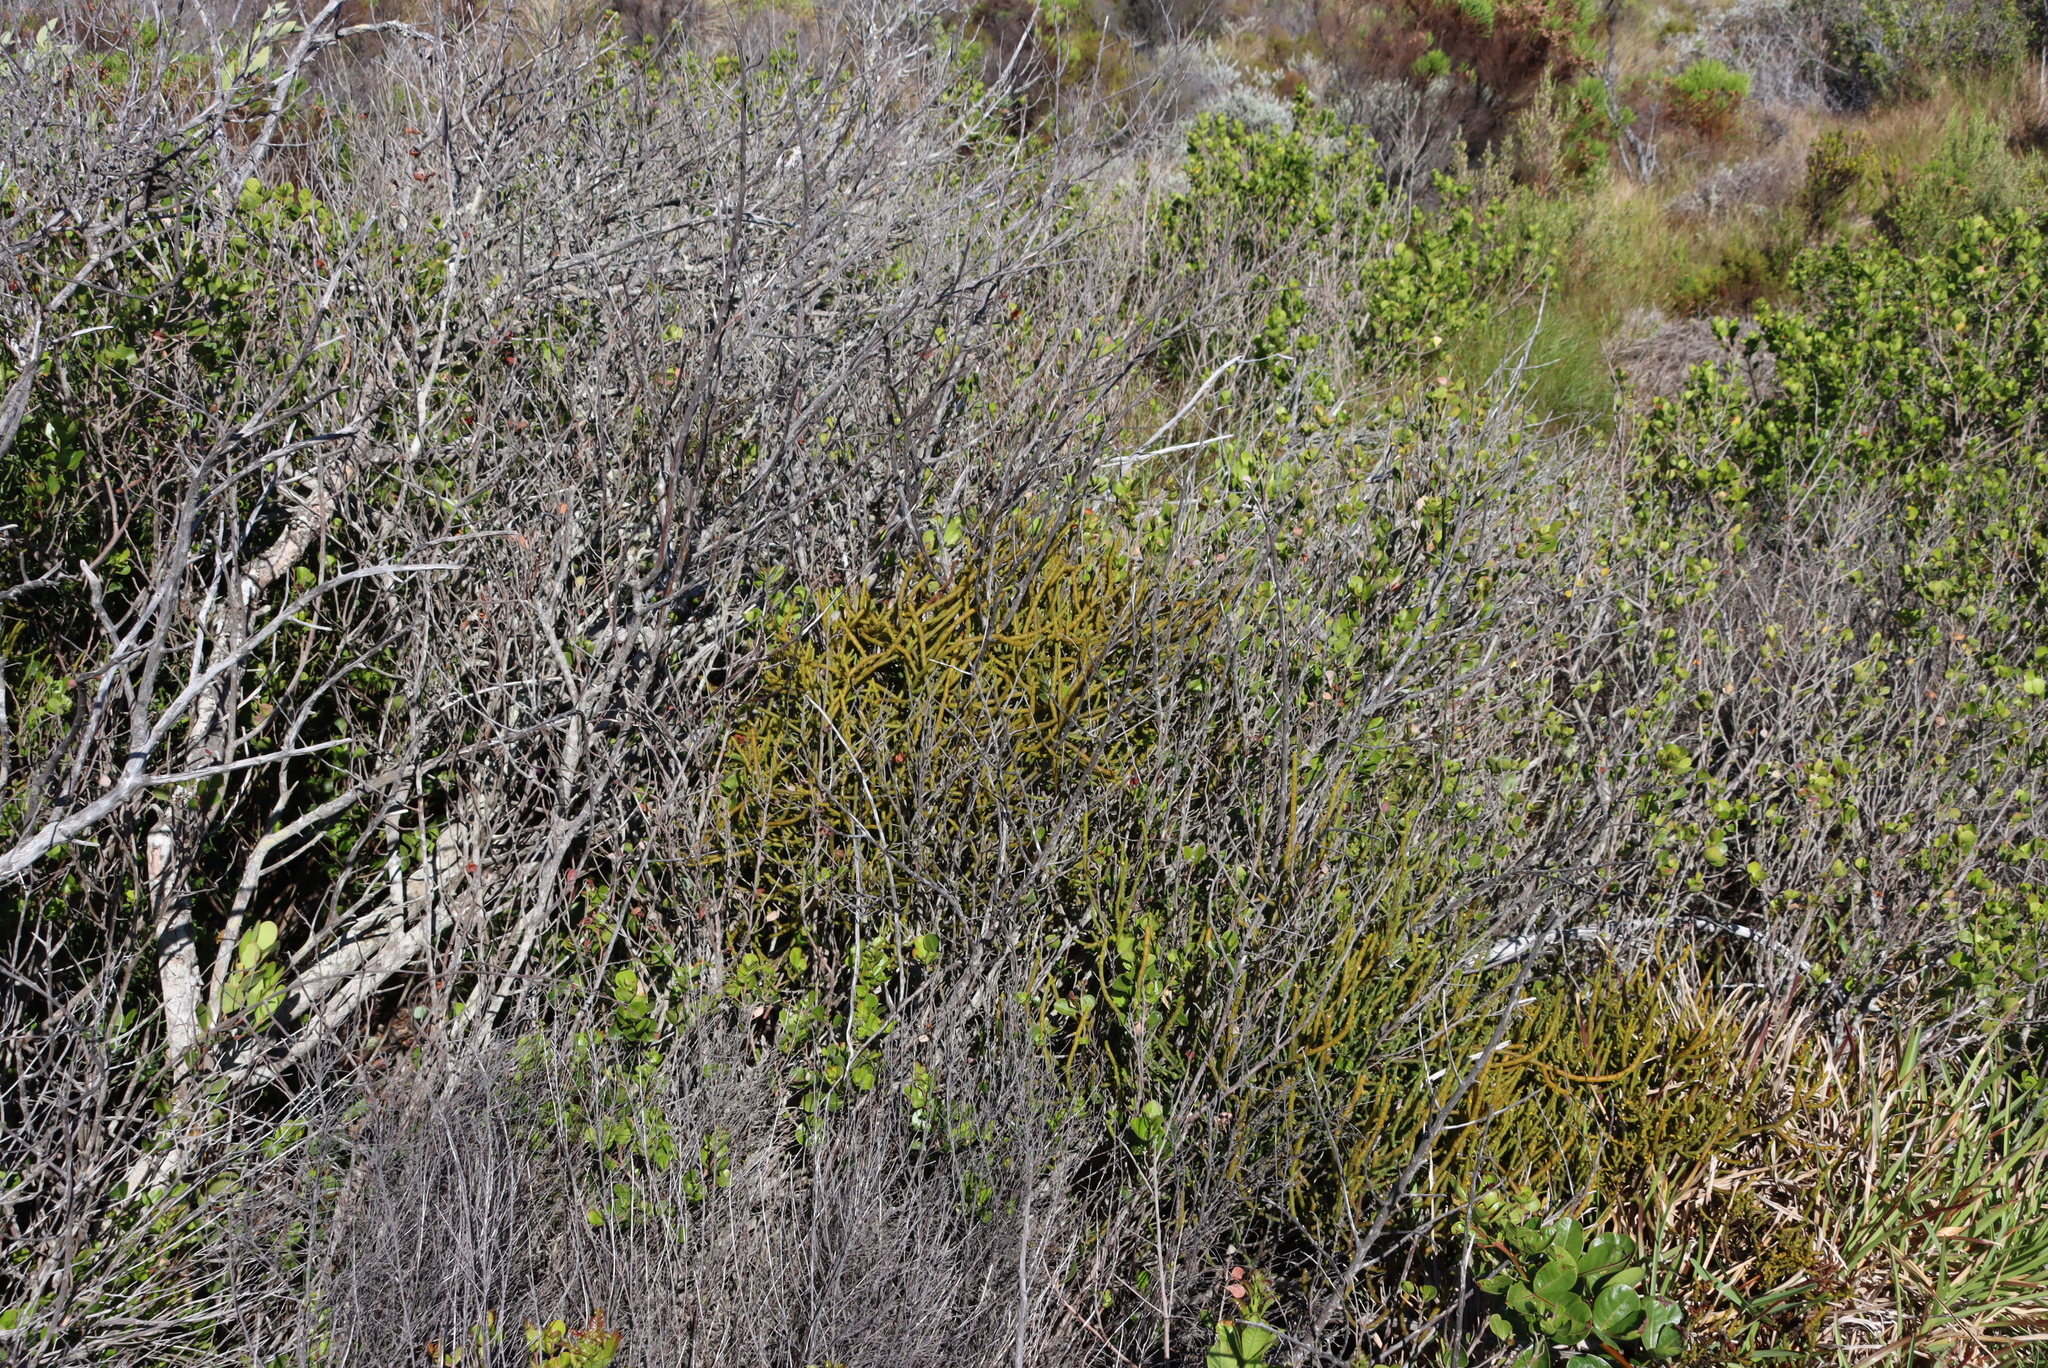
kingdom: Plantae
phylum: Tracheophyta
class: Magnoliopsida
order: Santalales
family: Viscaceae
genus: Viscum
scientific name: Viscum capense
